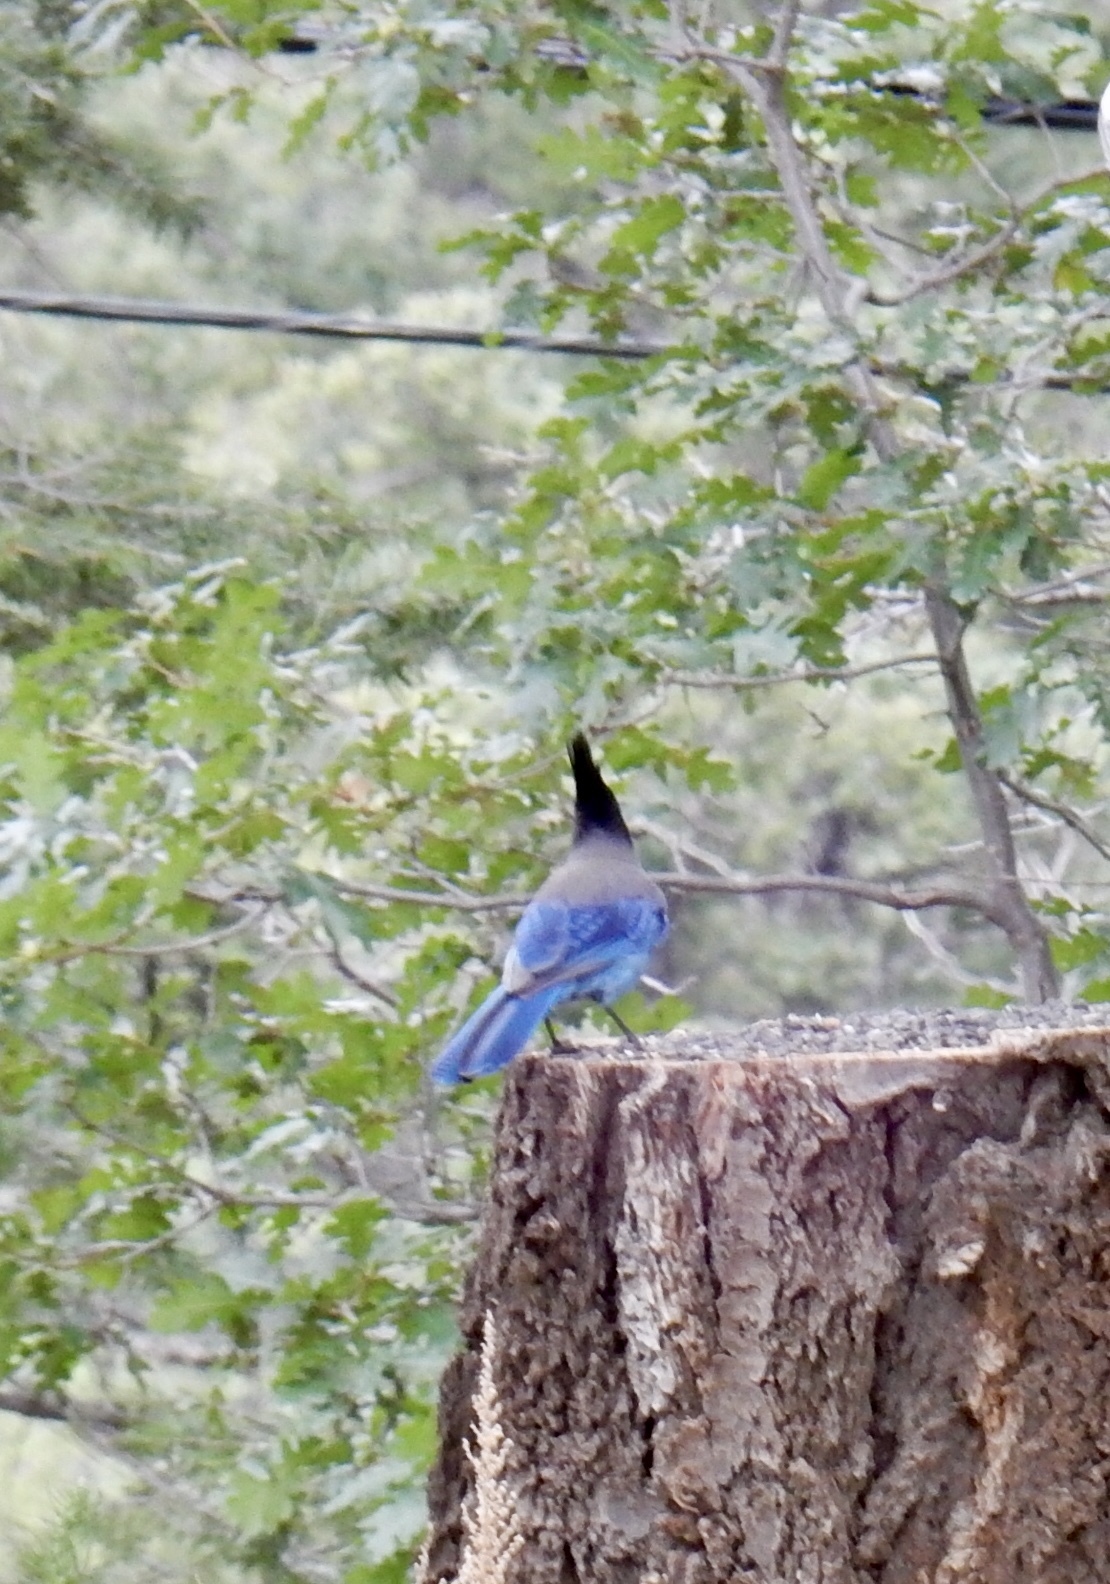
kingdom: Animalia
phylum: Chordata
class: Aves
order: Passeriformes
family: Corvidae
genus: Cyanocitta
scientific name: Cyanocitta stelleri
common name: Steller's jay
